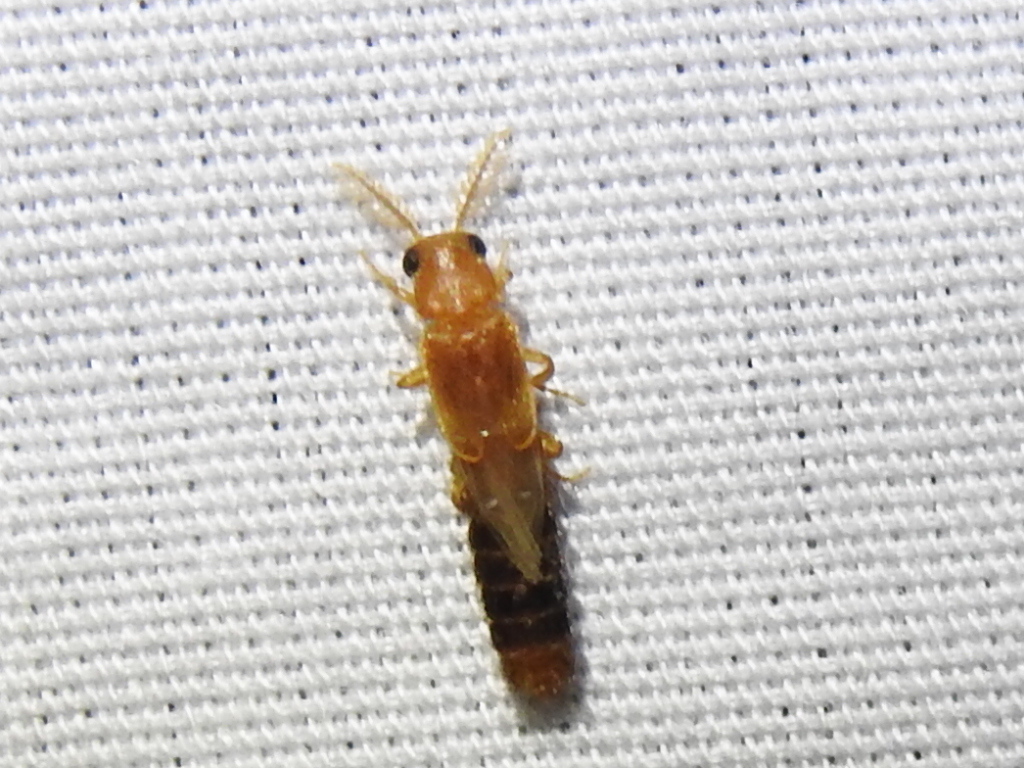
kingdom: Animalia
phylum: Arthropoda
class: Insecta
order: Coleoptera
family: Phengodidae
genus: Distremocephalus
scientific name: Distremocephalus texanus
